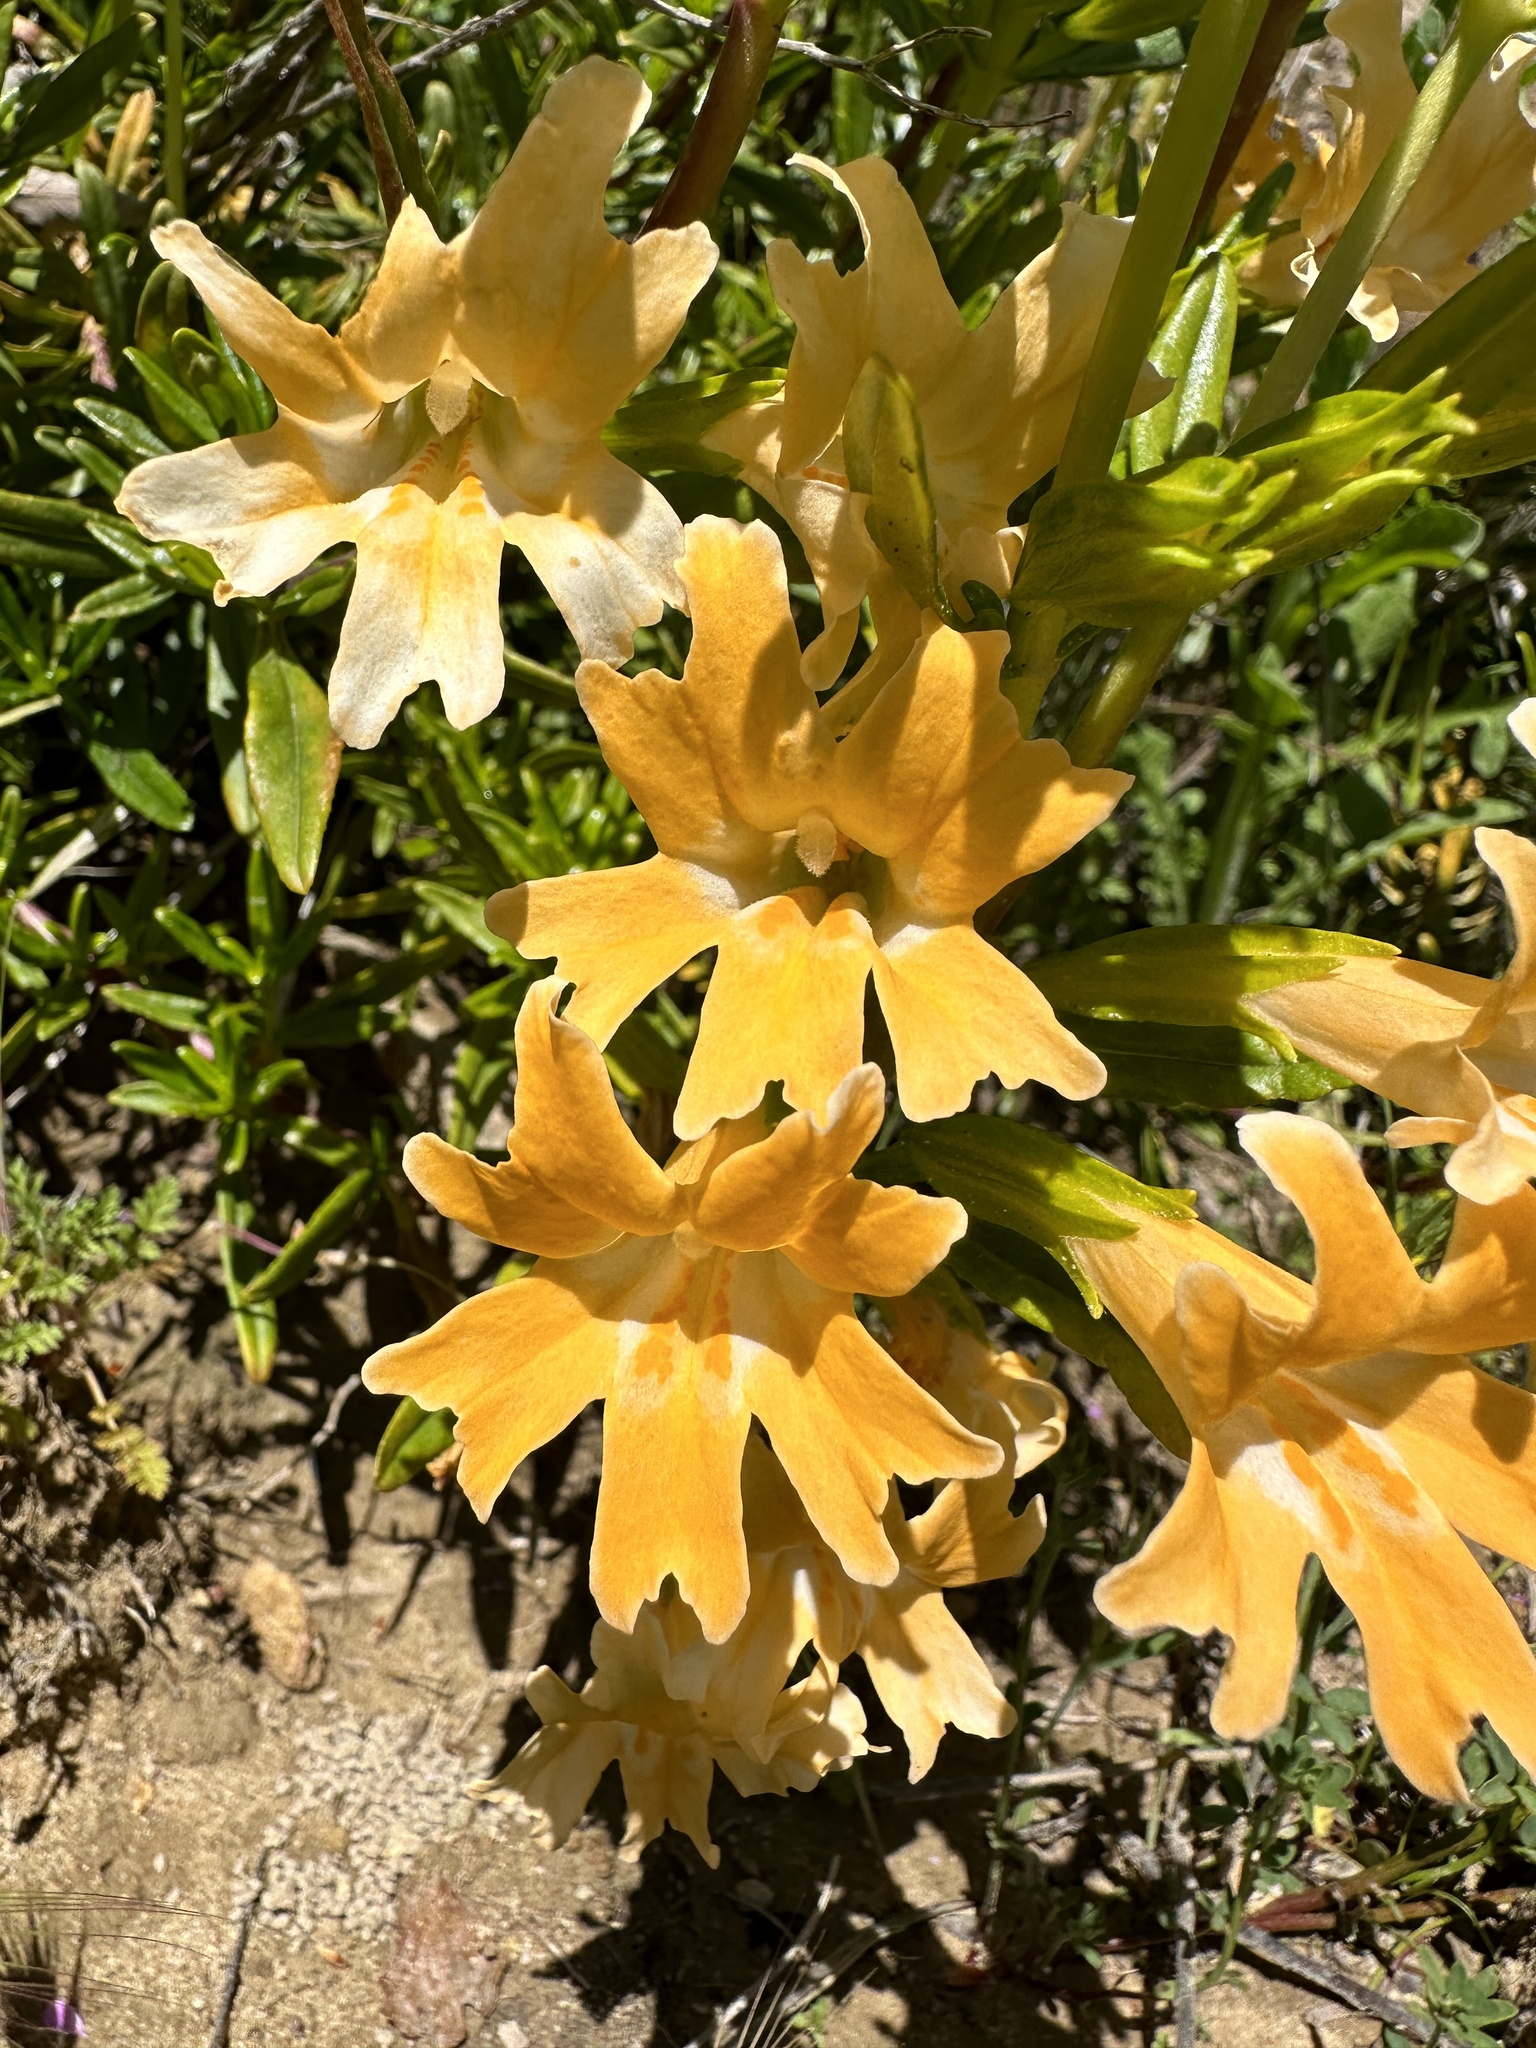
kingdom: Plantae
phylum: Tracheophyta
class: Magnoliopsida
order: Lamiales
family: Phrymaceae
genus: Diplacus
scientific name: Diplacus linearis
